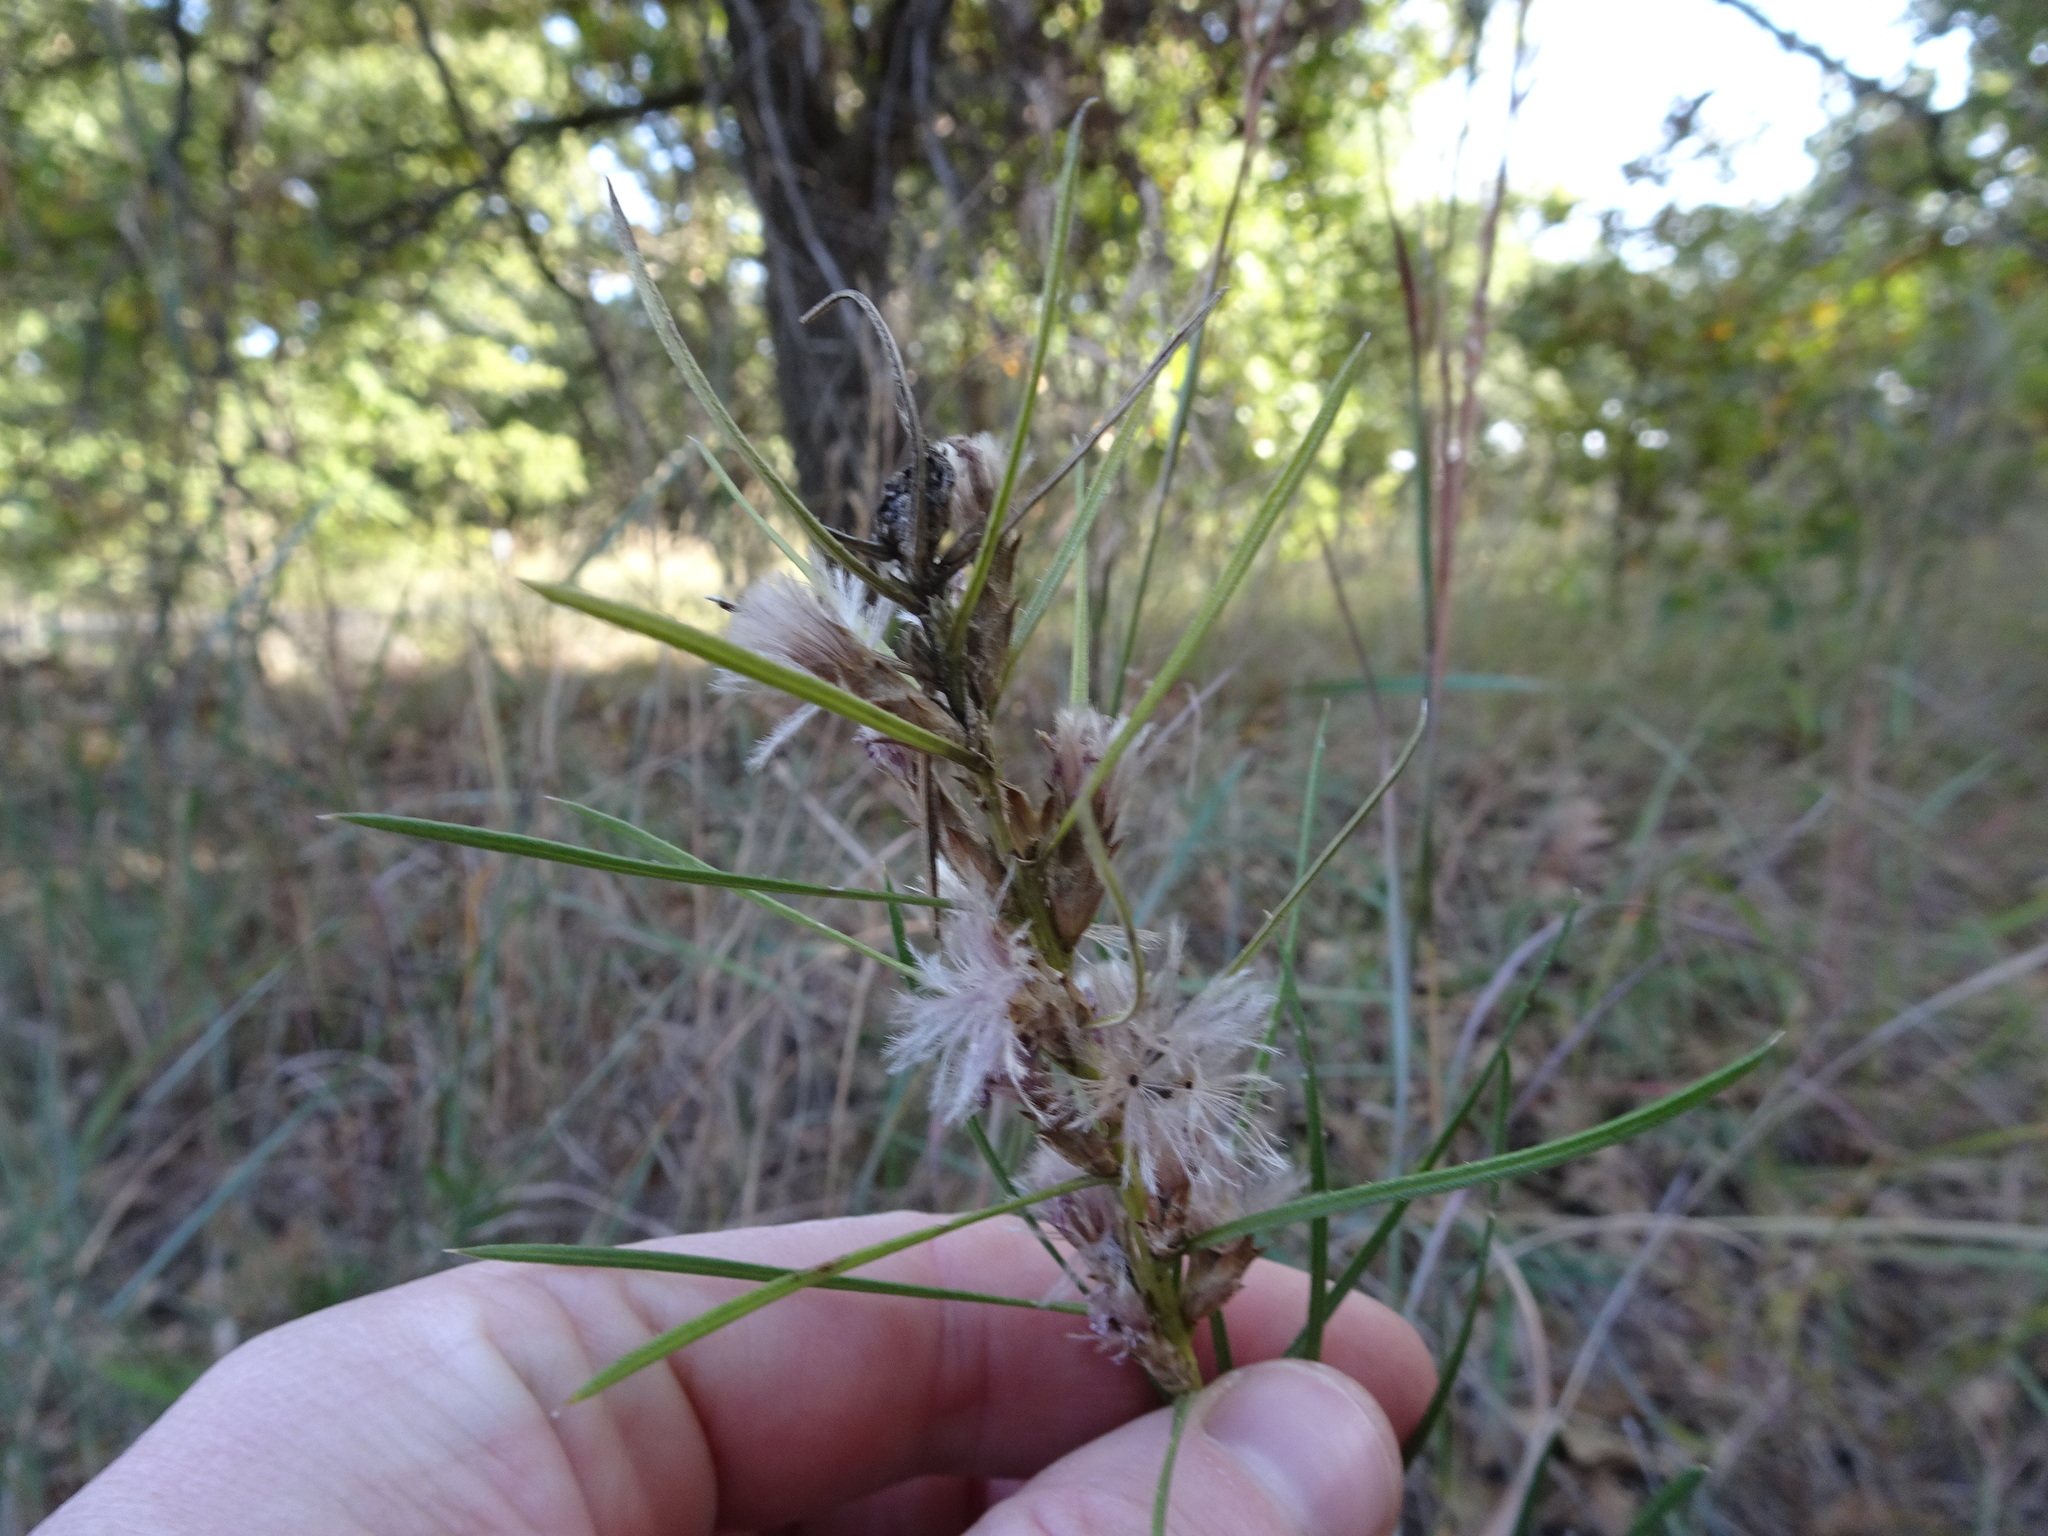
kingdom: Plantae
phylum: Tracheophyta
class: Magnoliopsida
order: Asterales
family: Asteraceae
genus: Liatris
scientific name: Liatris punctata
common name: Dotted gayfeather
